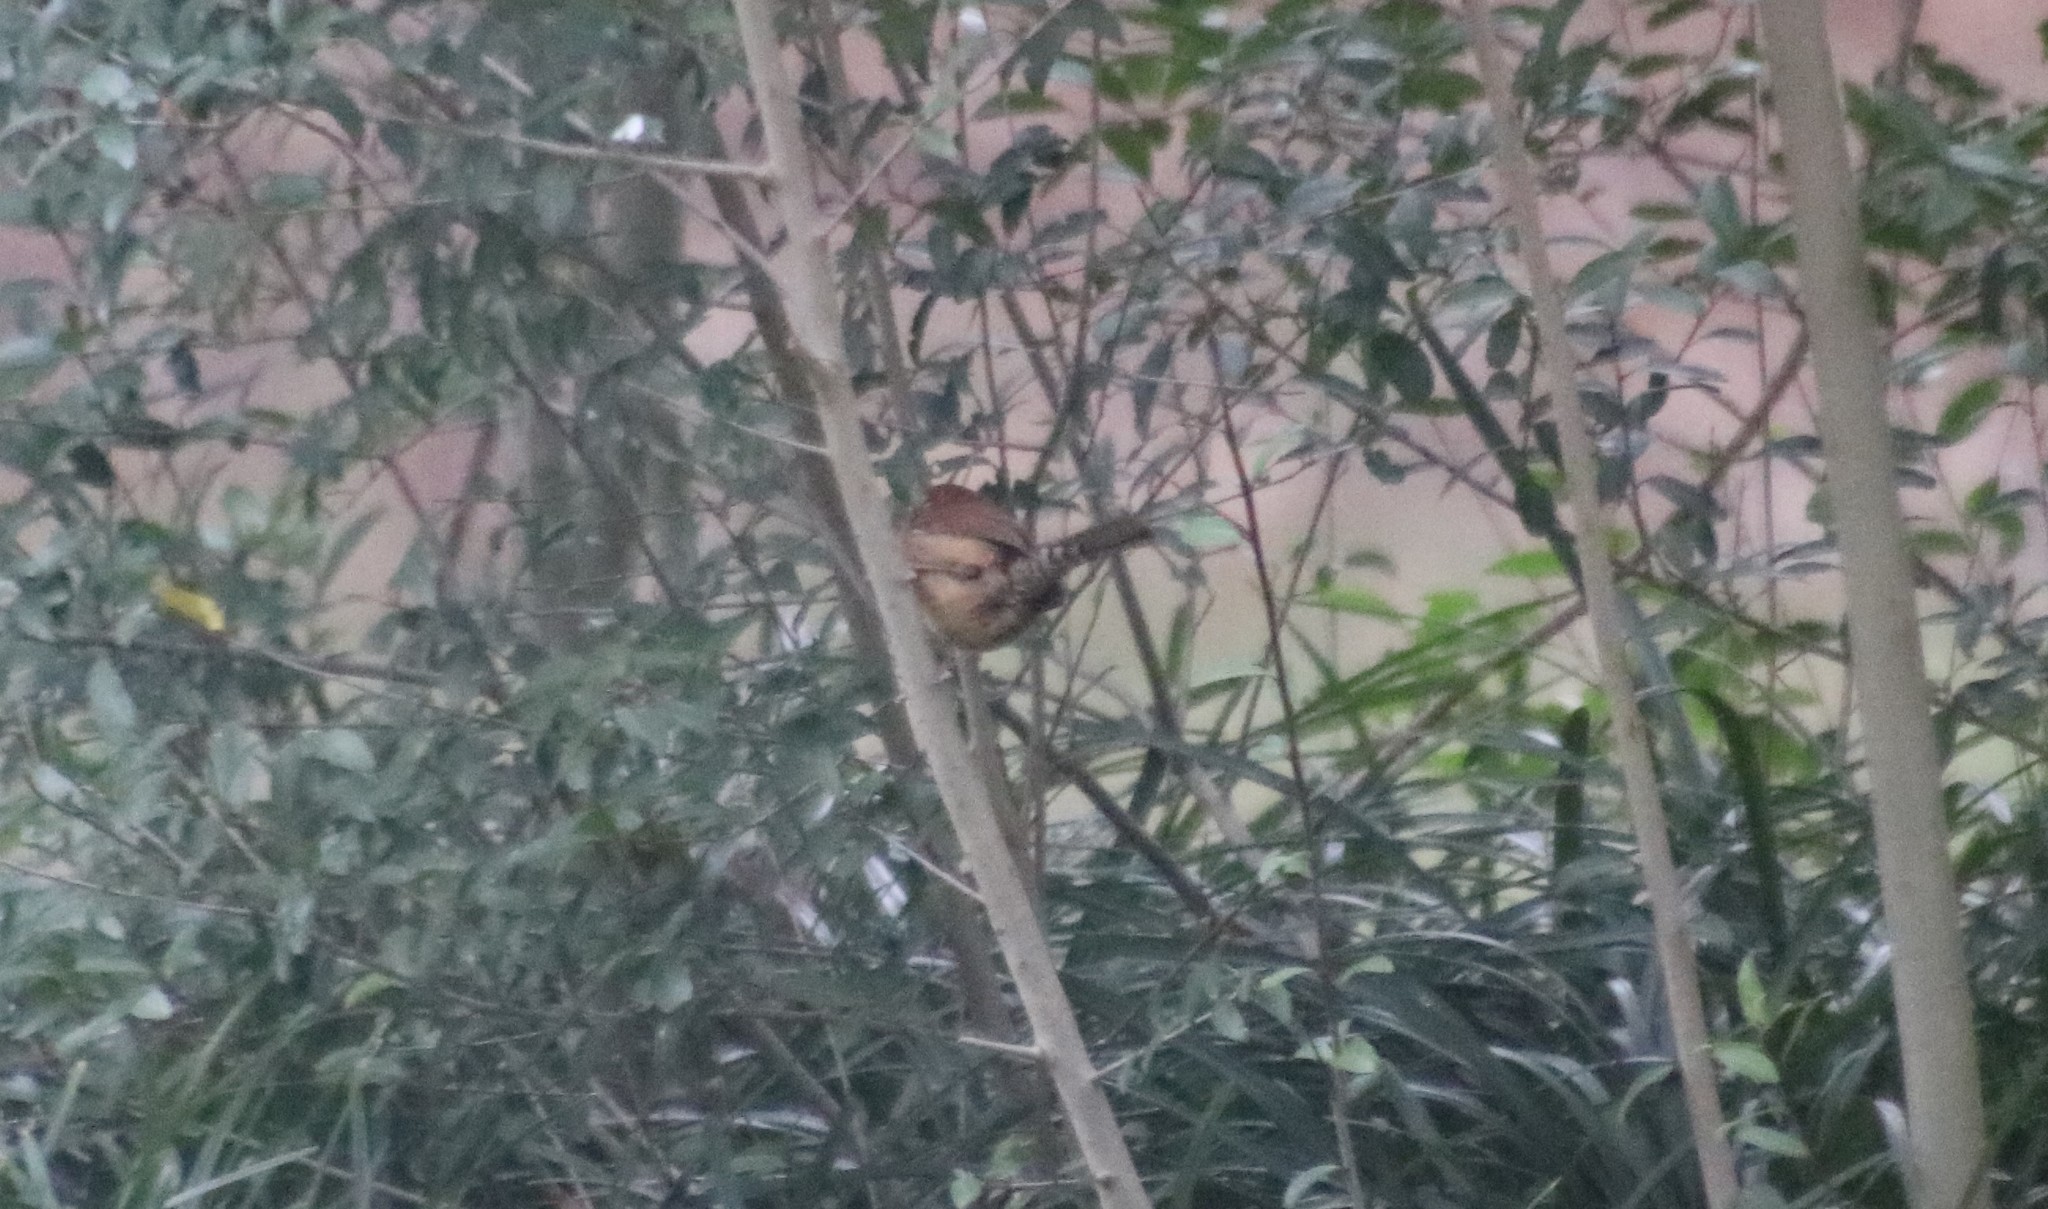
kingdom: Animalia
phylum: Chordata
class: Aves
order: Passeriformes
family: Troglodytidae
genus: Thryothorus
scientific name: Thryothorus ludovicianus
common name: Carolina wren
